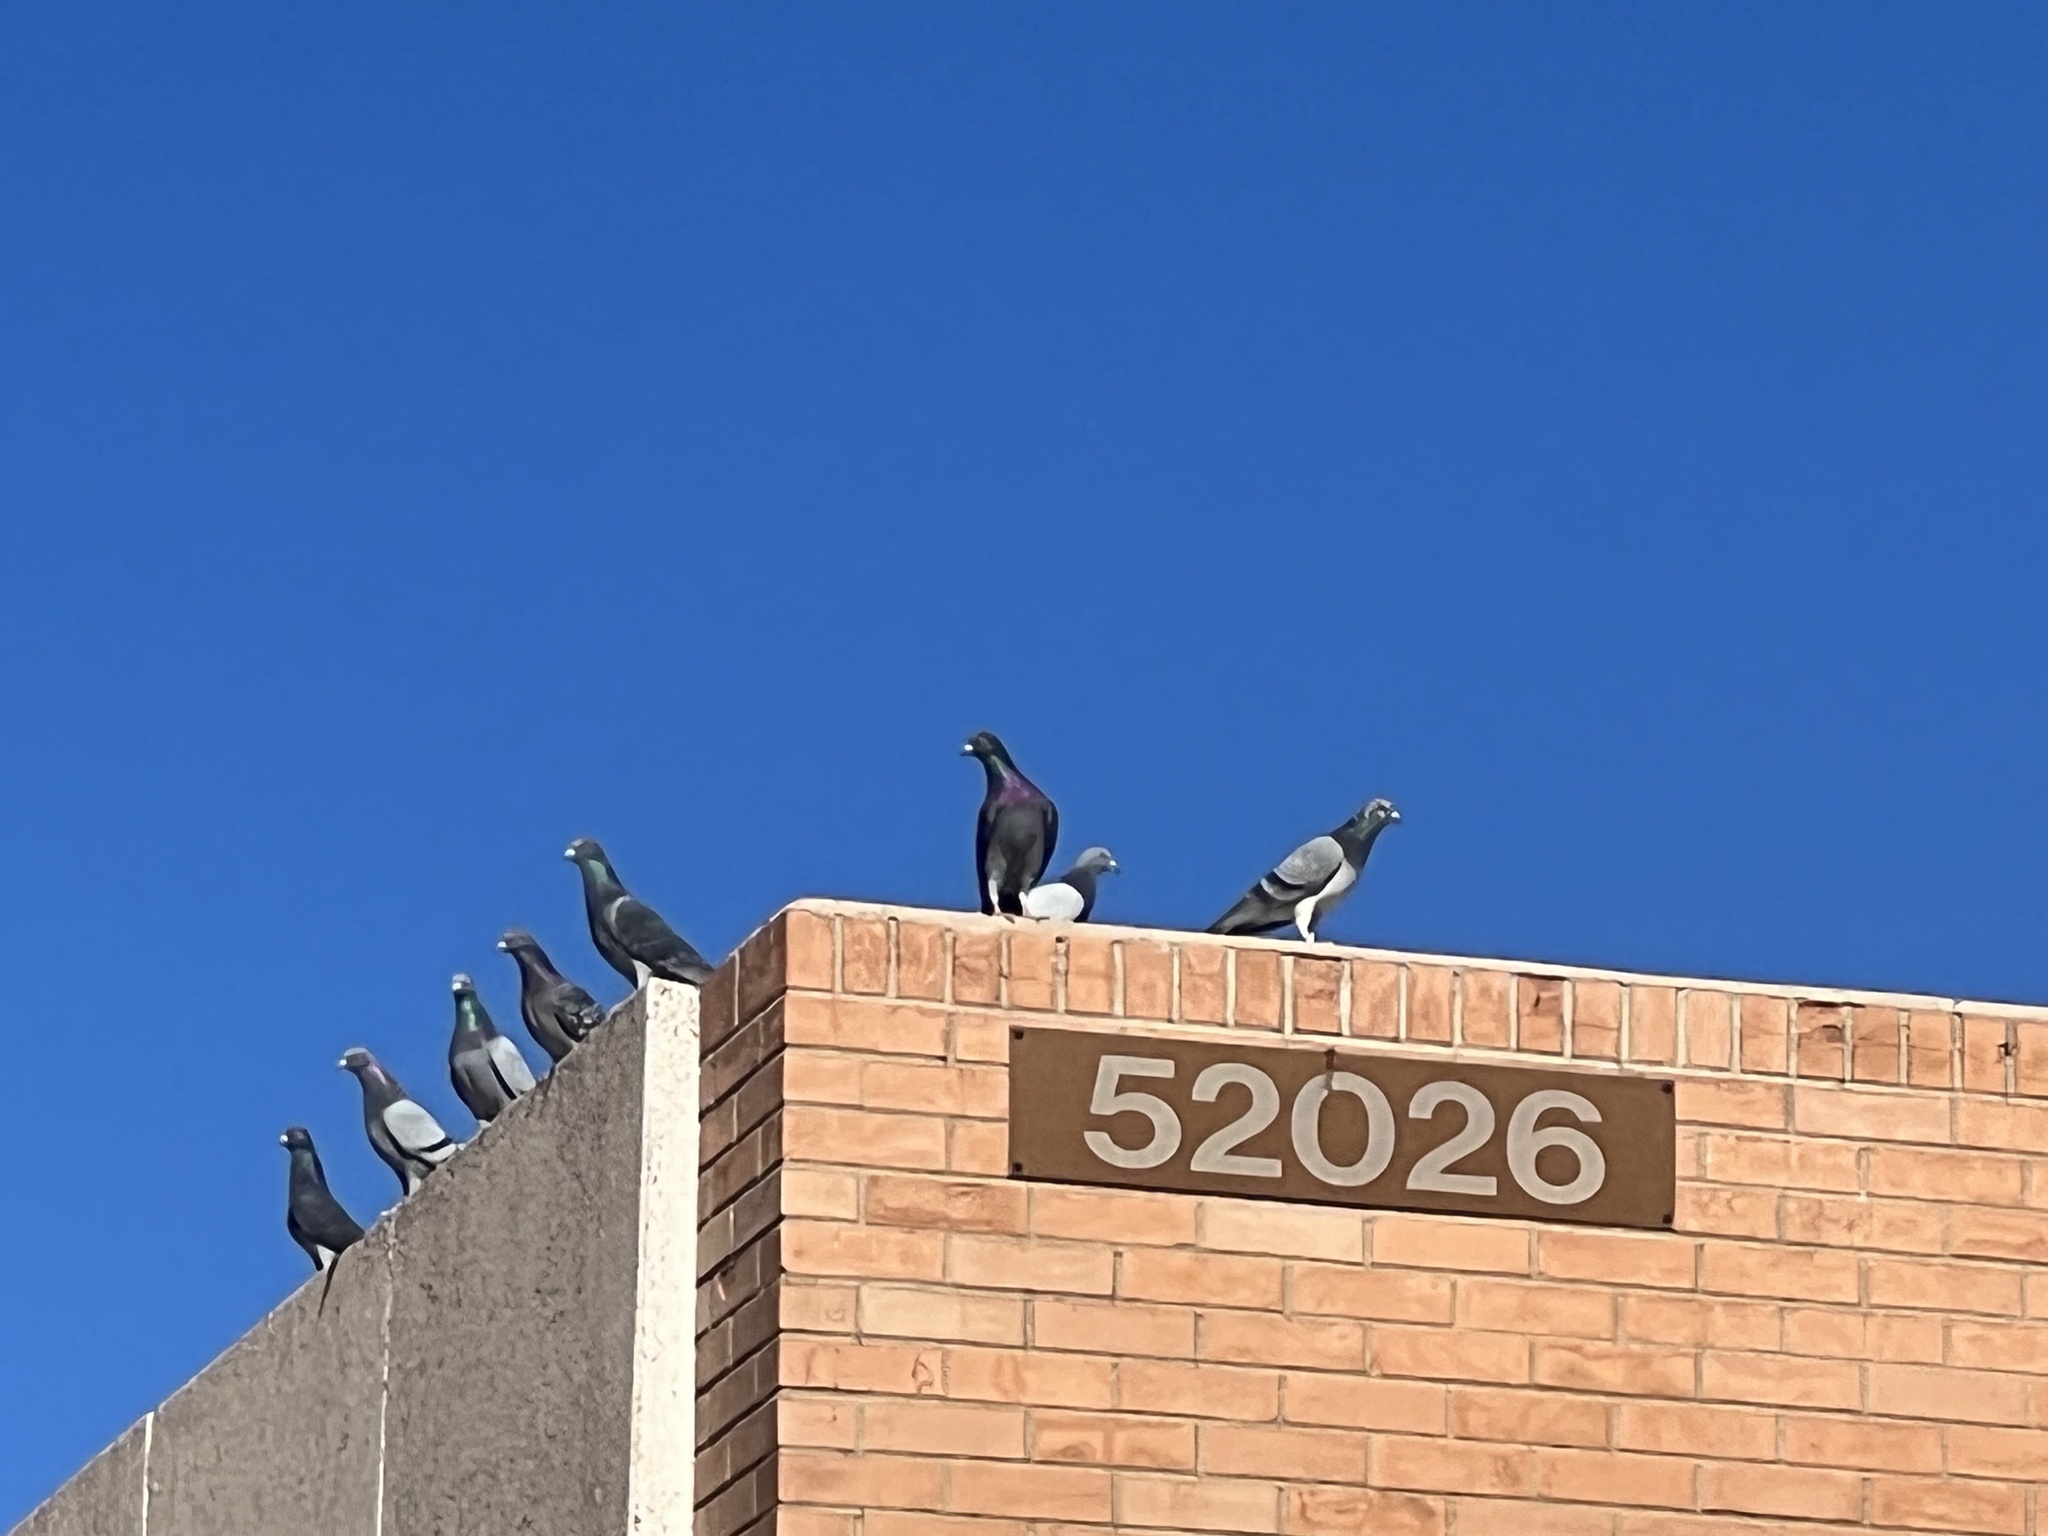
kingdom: Animalia
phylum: Chordata
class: Aves
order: Columbiformes
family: Columbidae
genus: Columba
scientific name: Columba livia
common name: Rock pigeon
